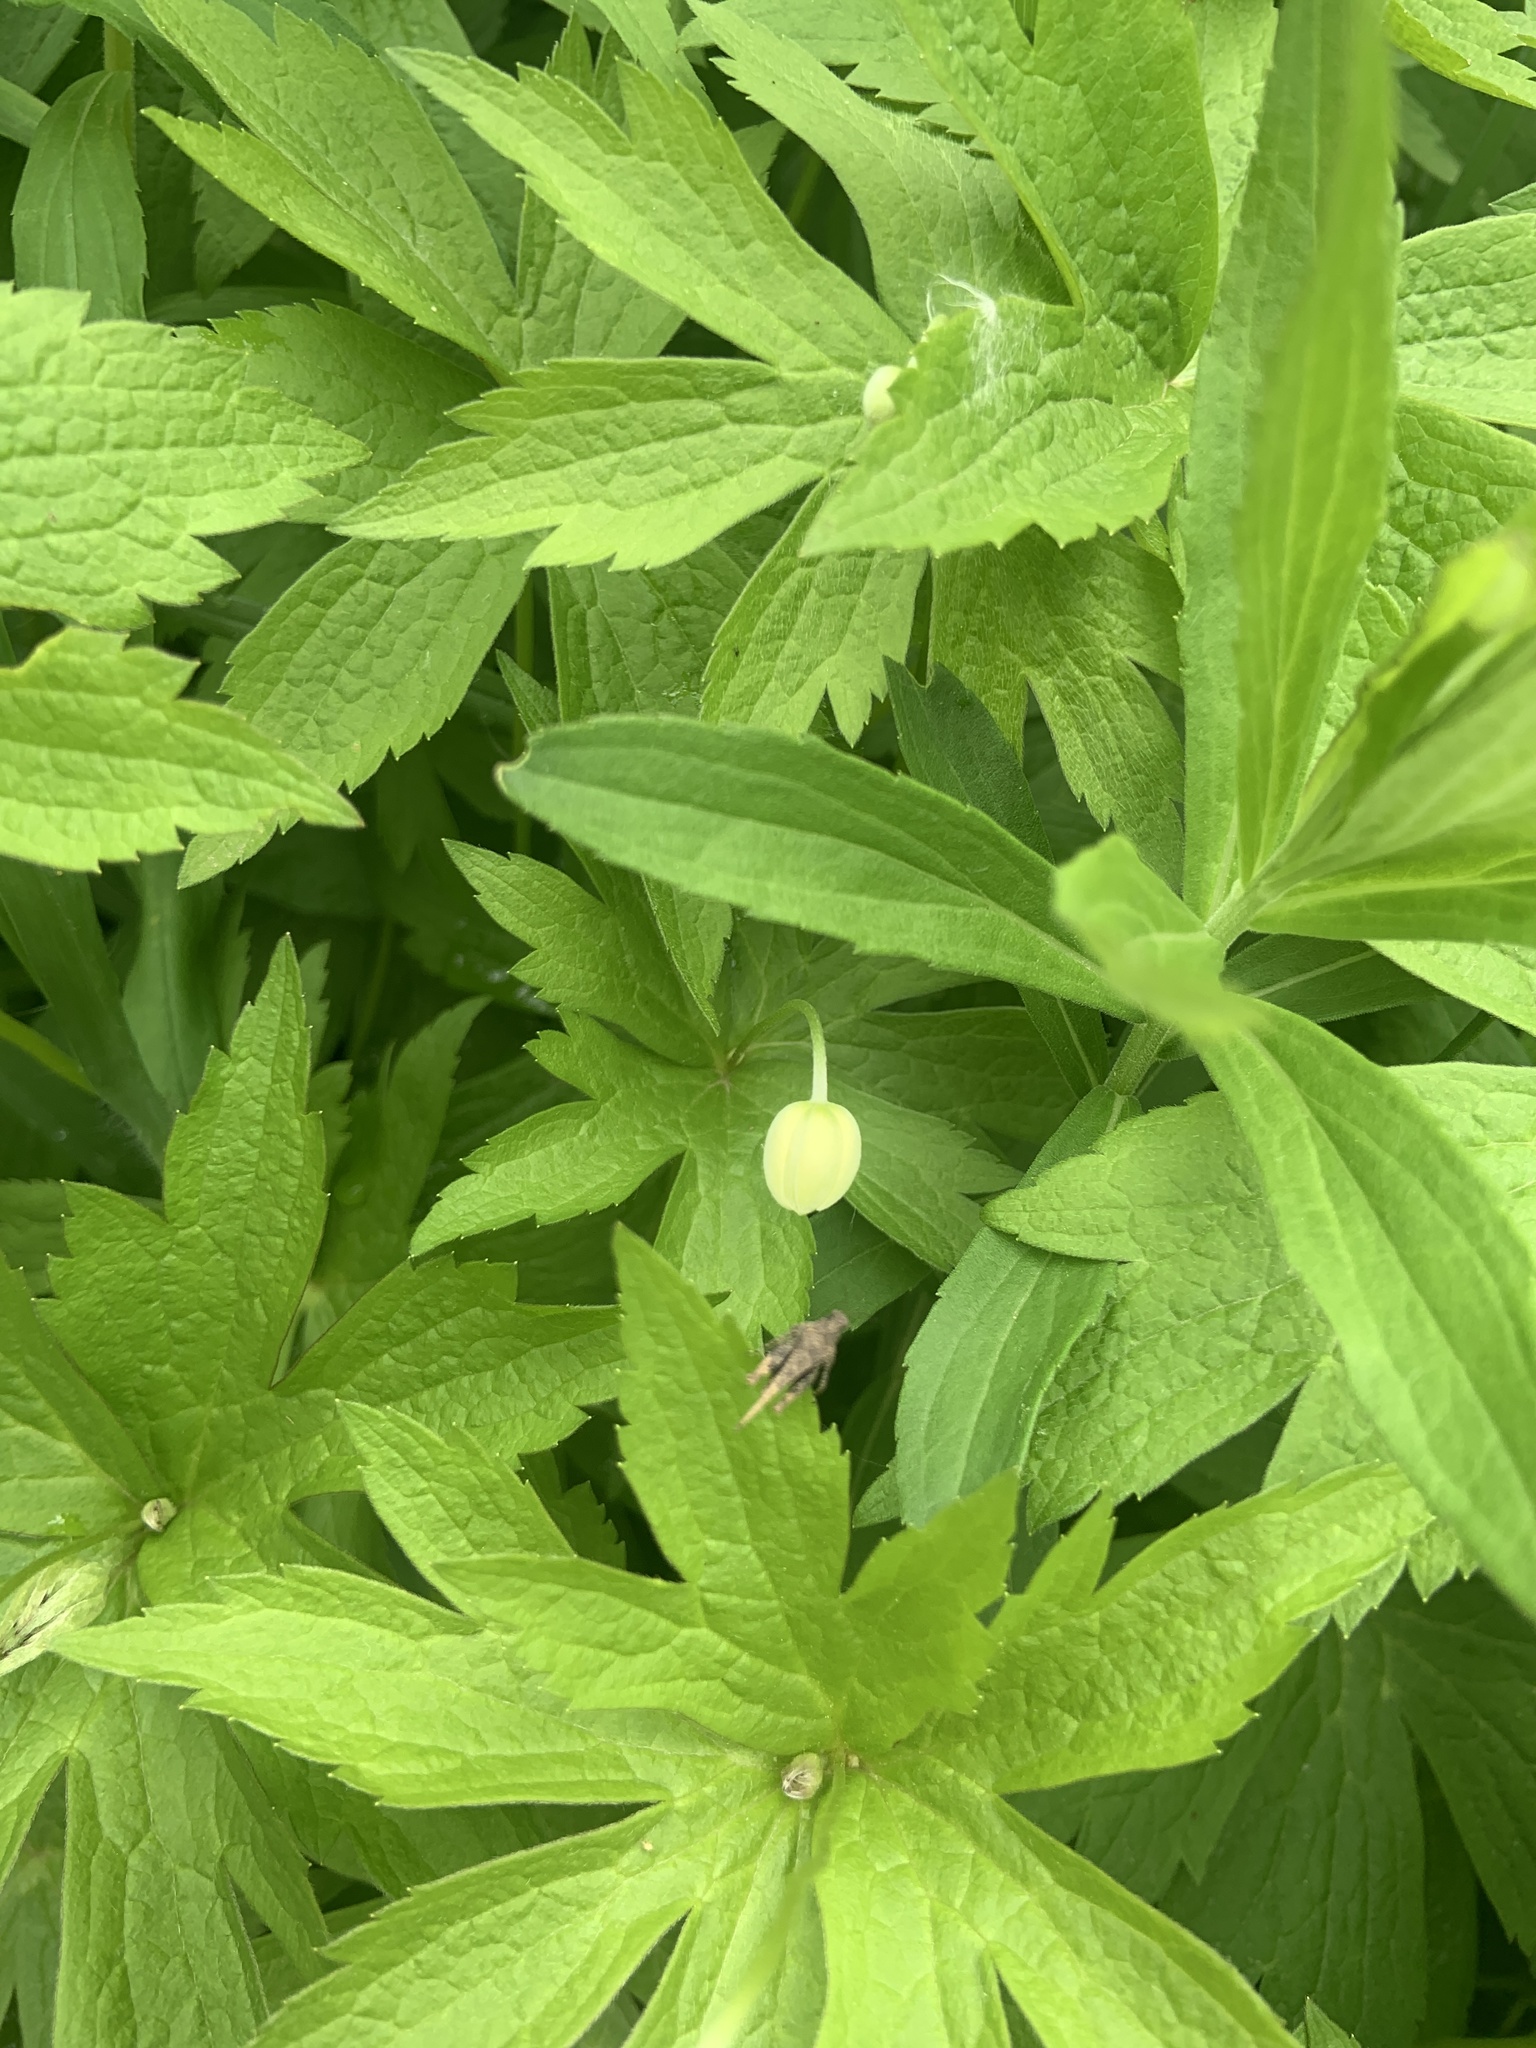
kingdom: Plantae
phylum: Tracheophyta
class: Magnoliopsida
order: Ranunculales
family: Ranunculaceae
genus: Anemonastrum
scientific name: Anemonastrum canadense
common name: Canada anemone
